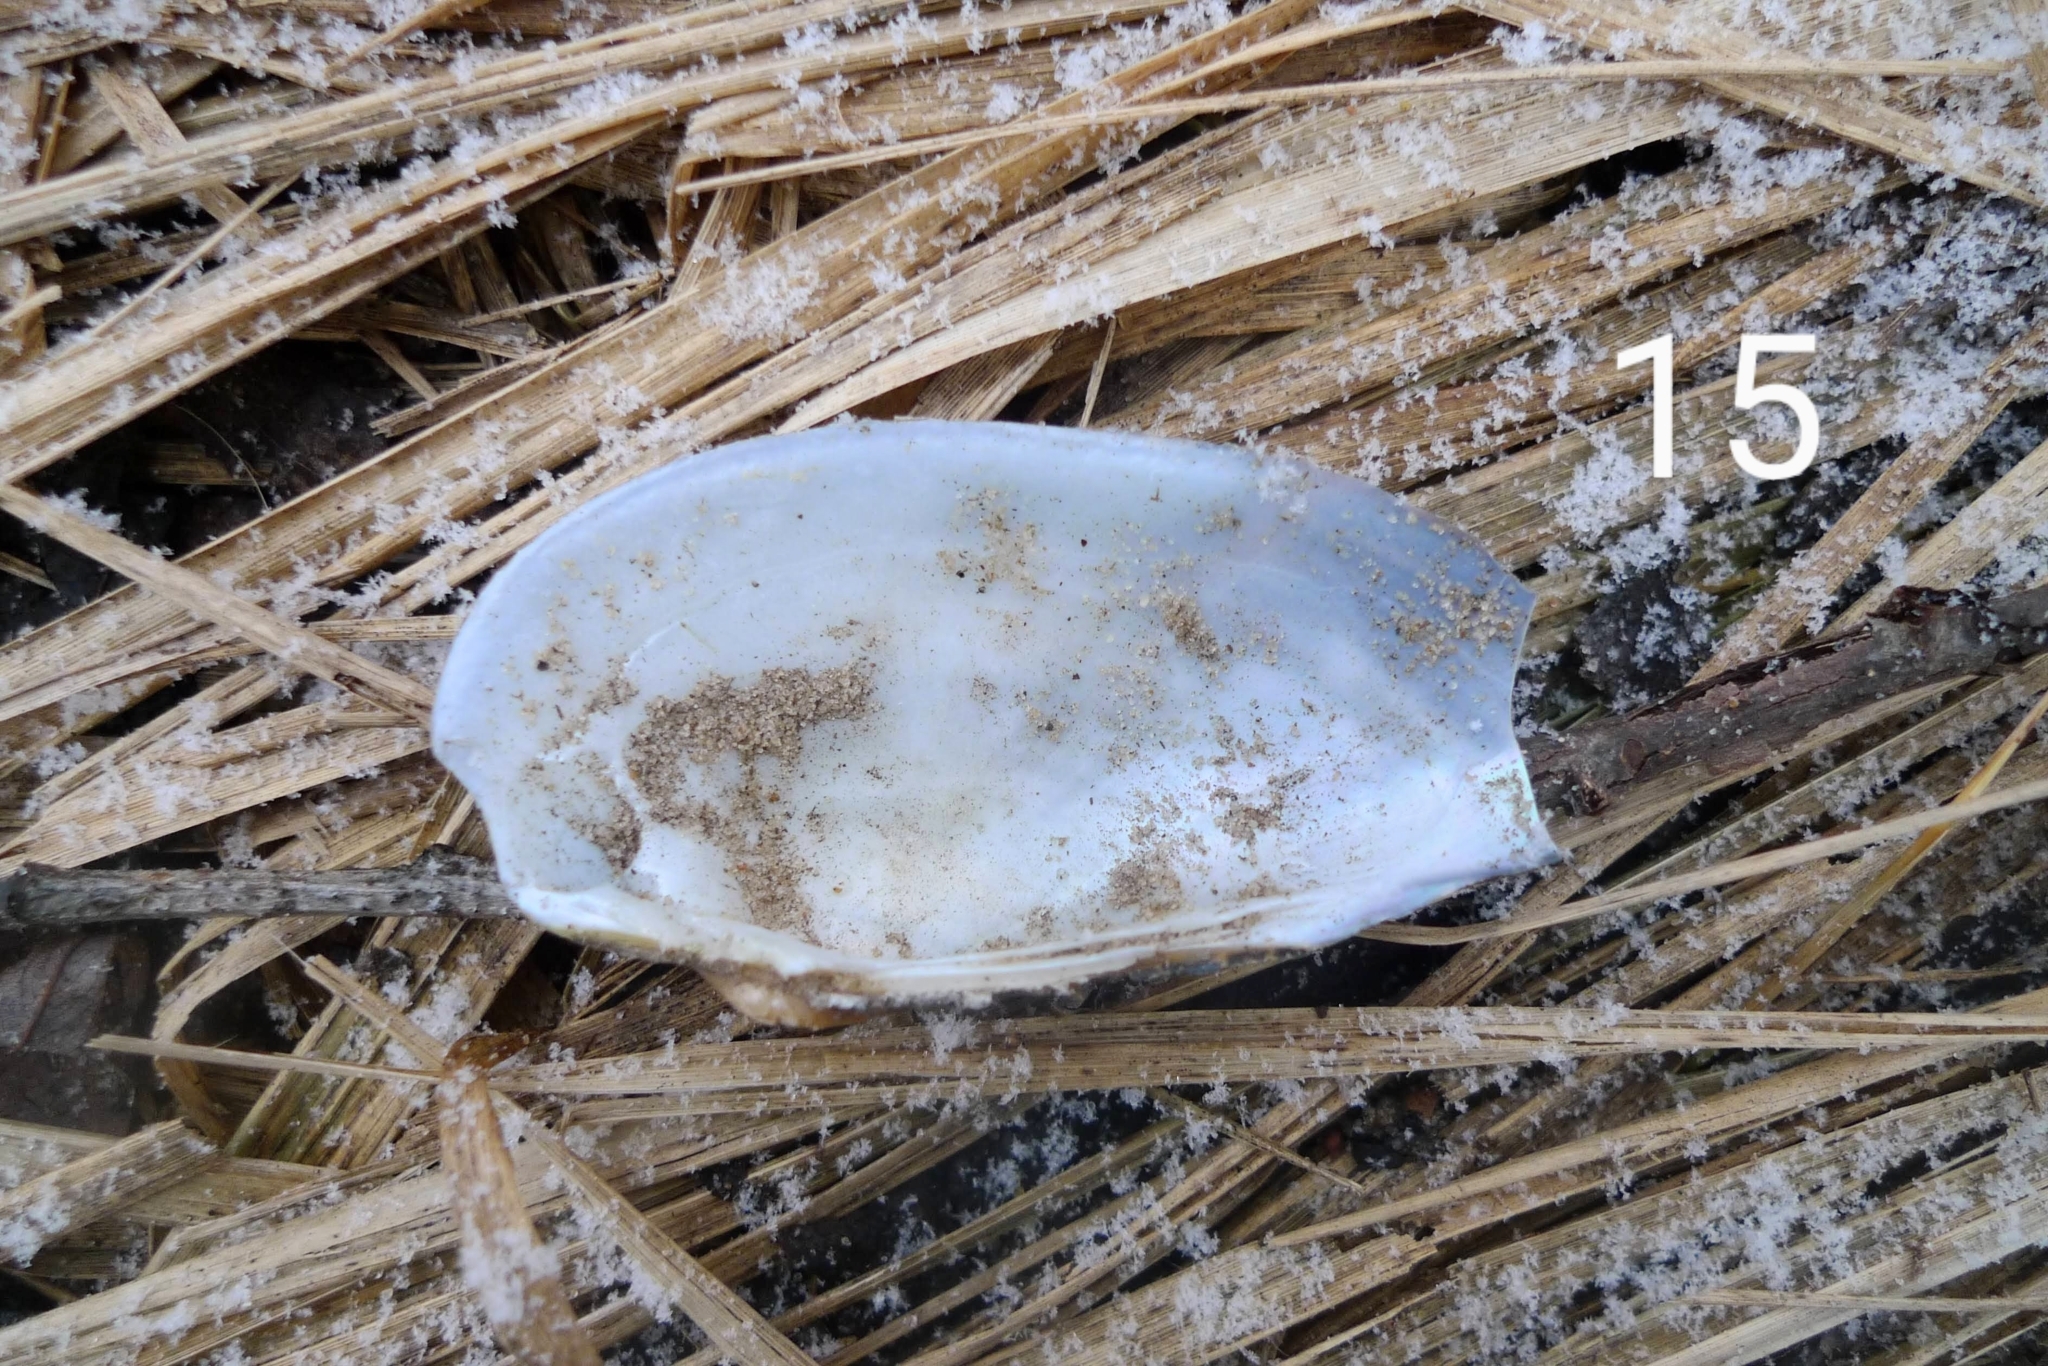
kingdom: Animalia
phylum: Mollusca
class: Bivalvia
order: Unionida
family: Unionidae
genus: Unio
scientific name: Unio tumidus
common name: Swollen river mussel
